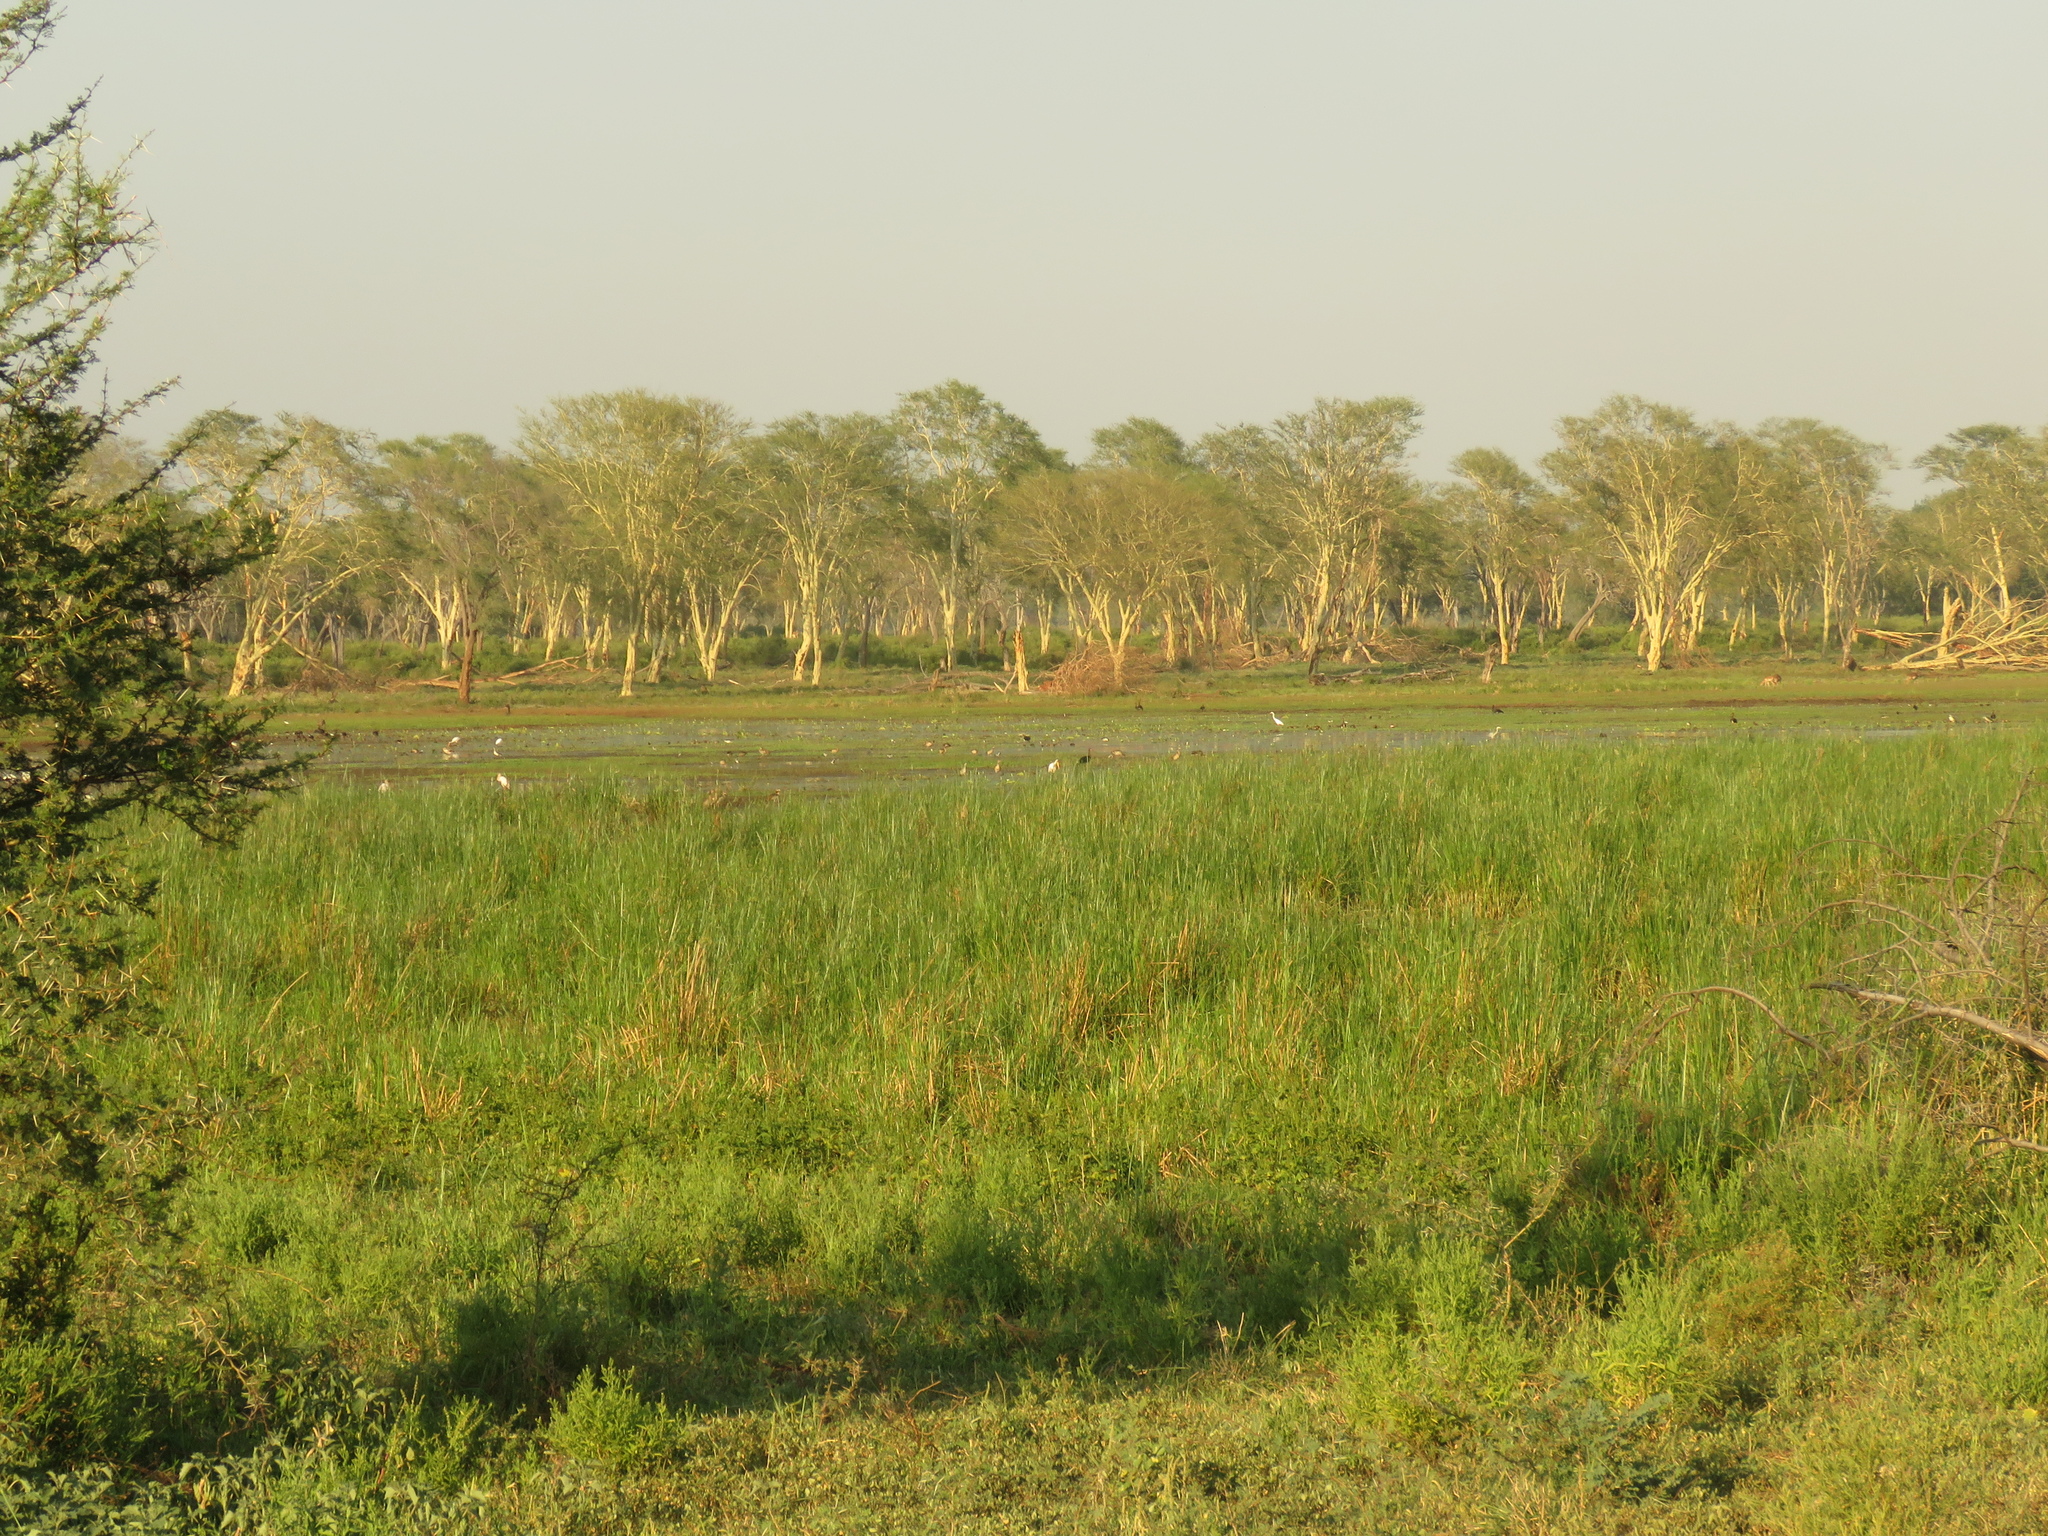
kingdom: Plantae
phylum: Tracheophyta
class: Magnoliopsida
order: Fabales
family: Fabaceae
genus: Vachellia
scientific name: Vachellia xanthophloea
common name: Fever tree
